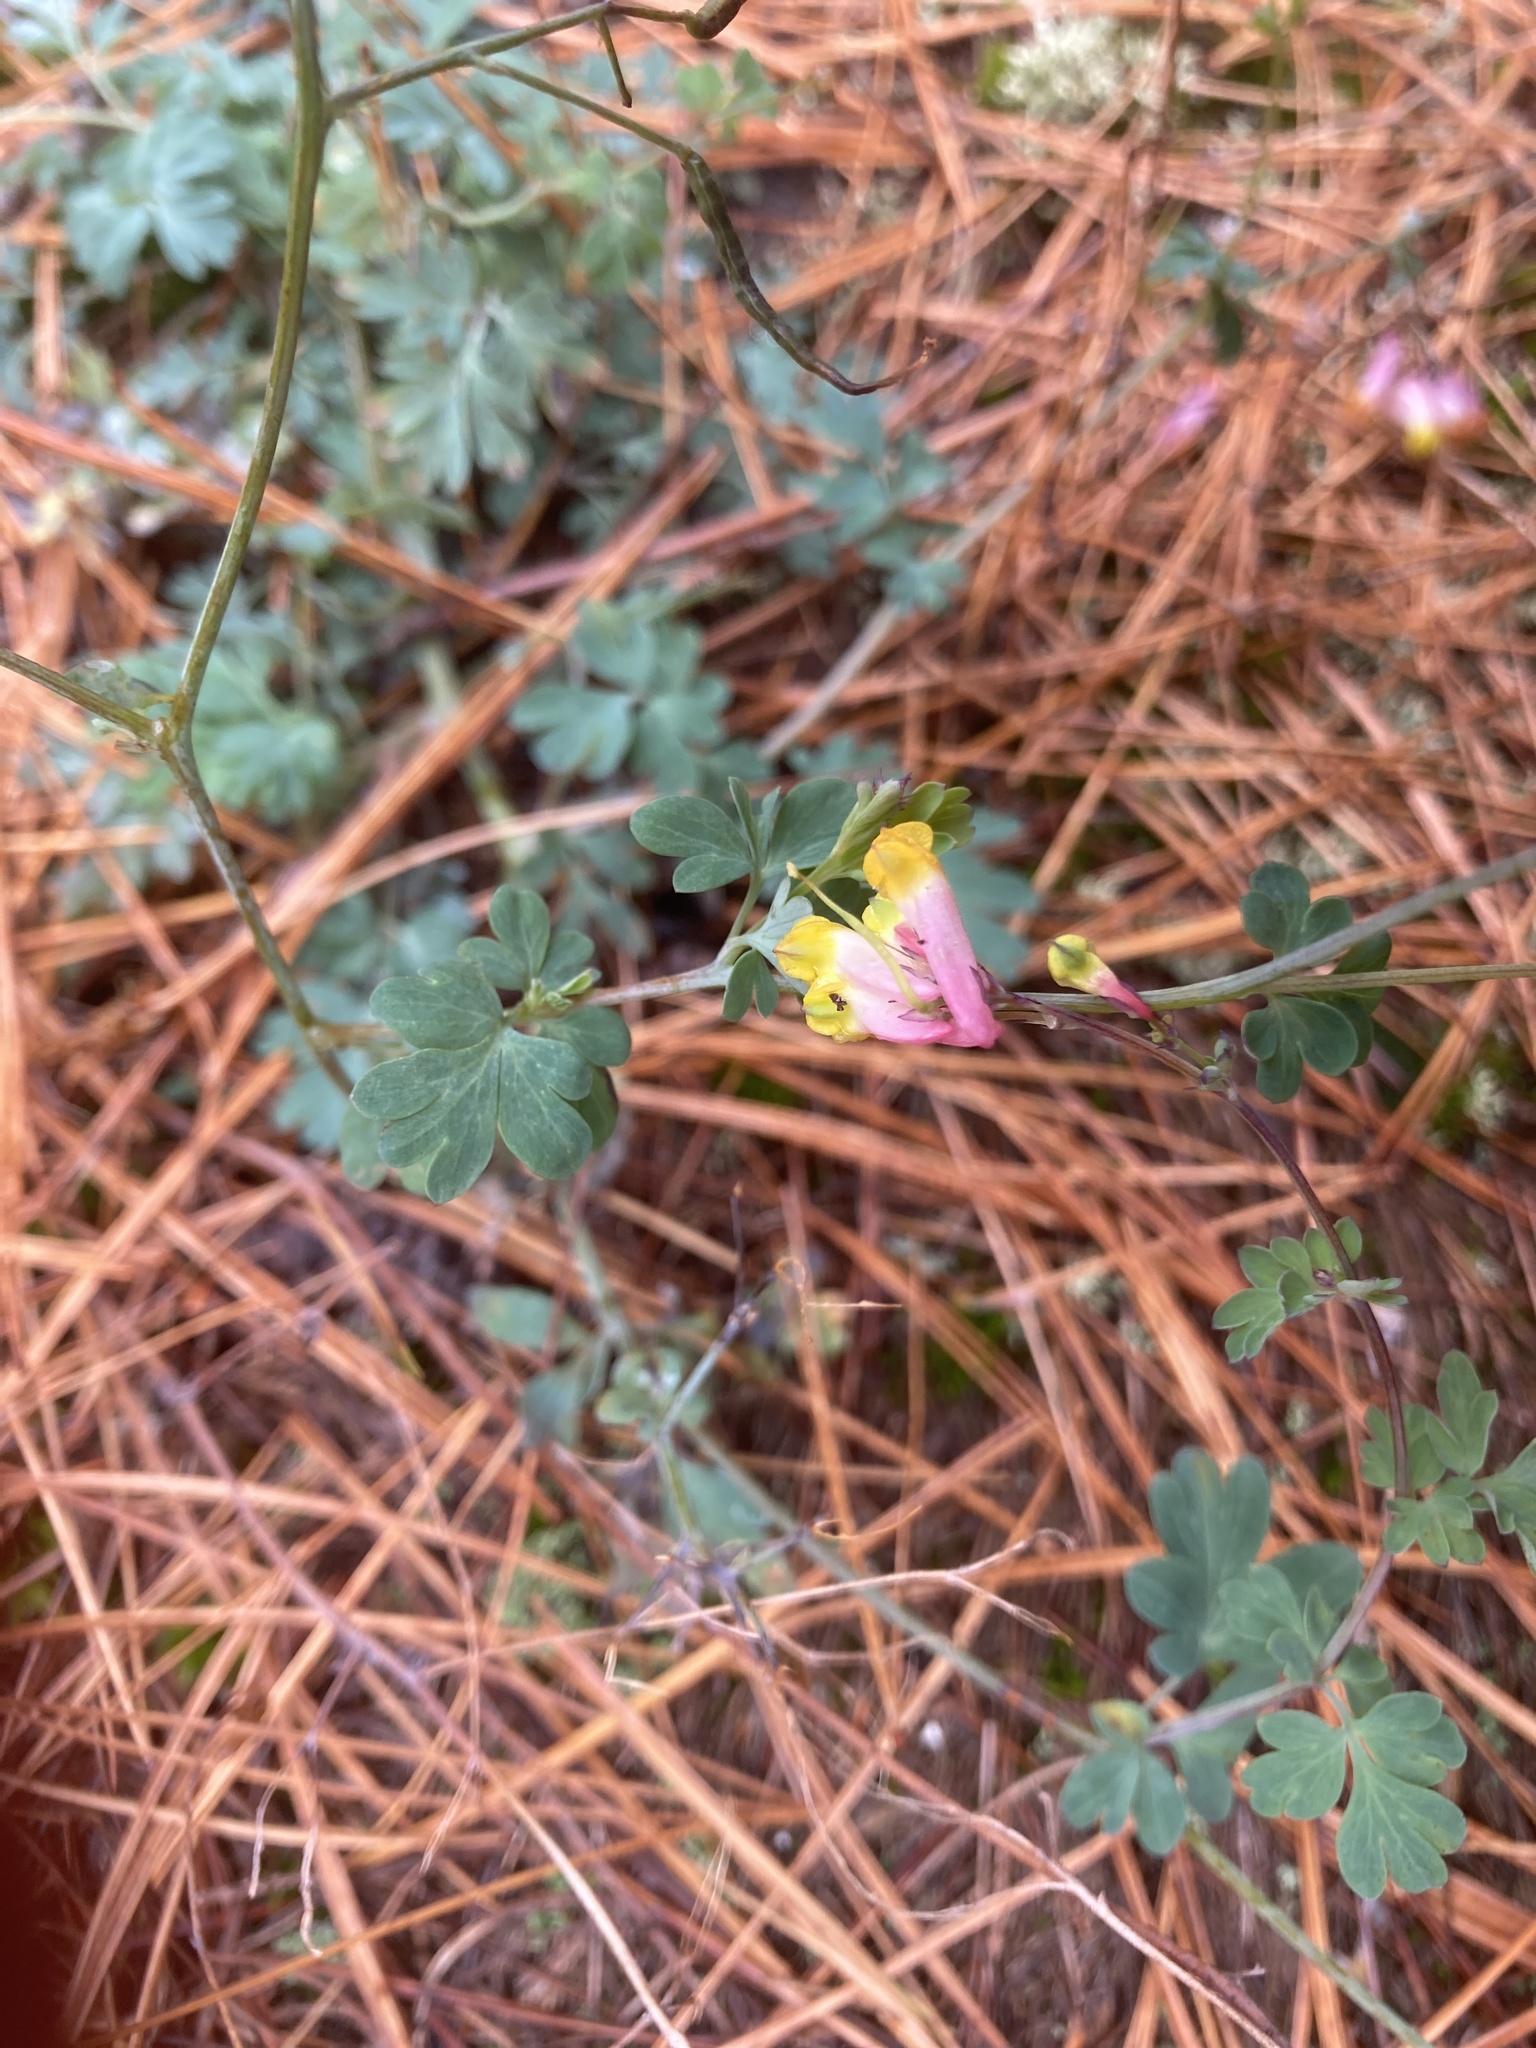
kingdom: Plantae
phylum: Tracheophyta
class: Magnoliopsida
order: Ranunculales
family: Papaveraceae
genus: Capnoides
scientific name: Capnoides sempervirens
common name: Rock harlequin
